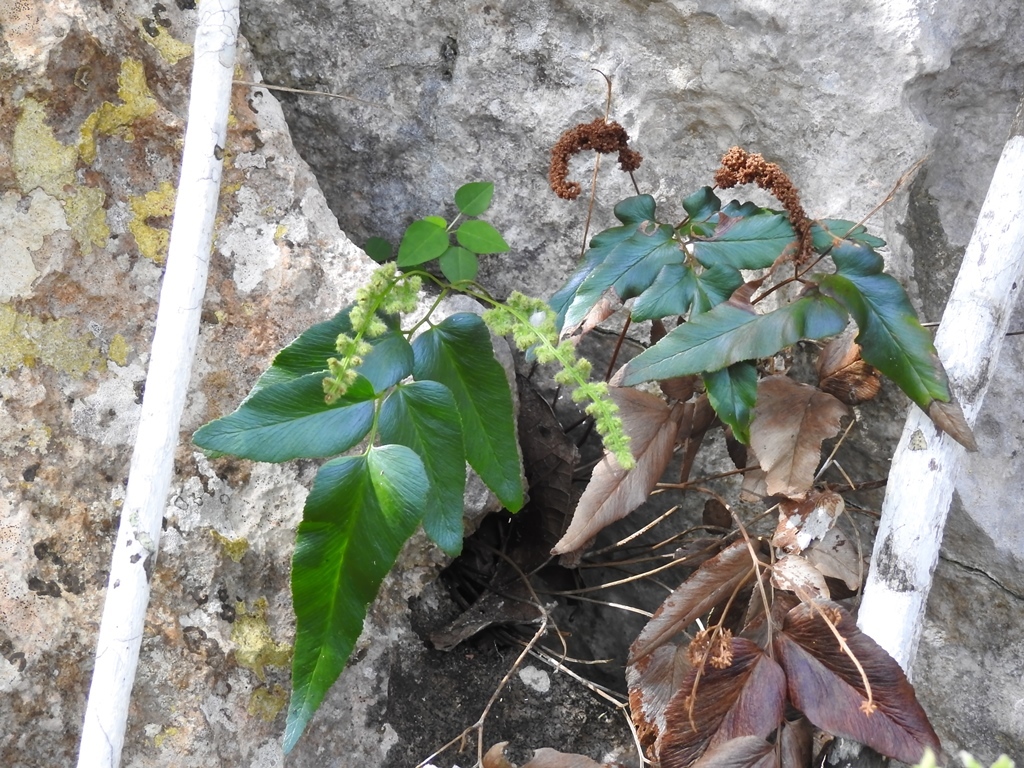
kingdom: Plantae
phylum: Tracheophyta
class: Polypodiopsida
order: Schizaeales
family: Anemiaceae
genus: Anemia
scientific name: Anemia speciosa
